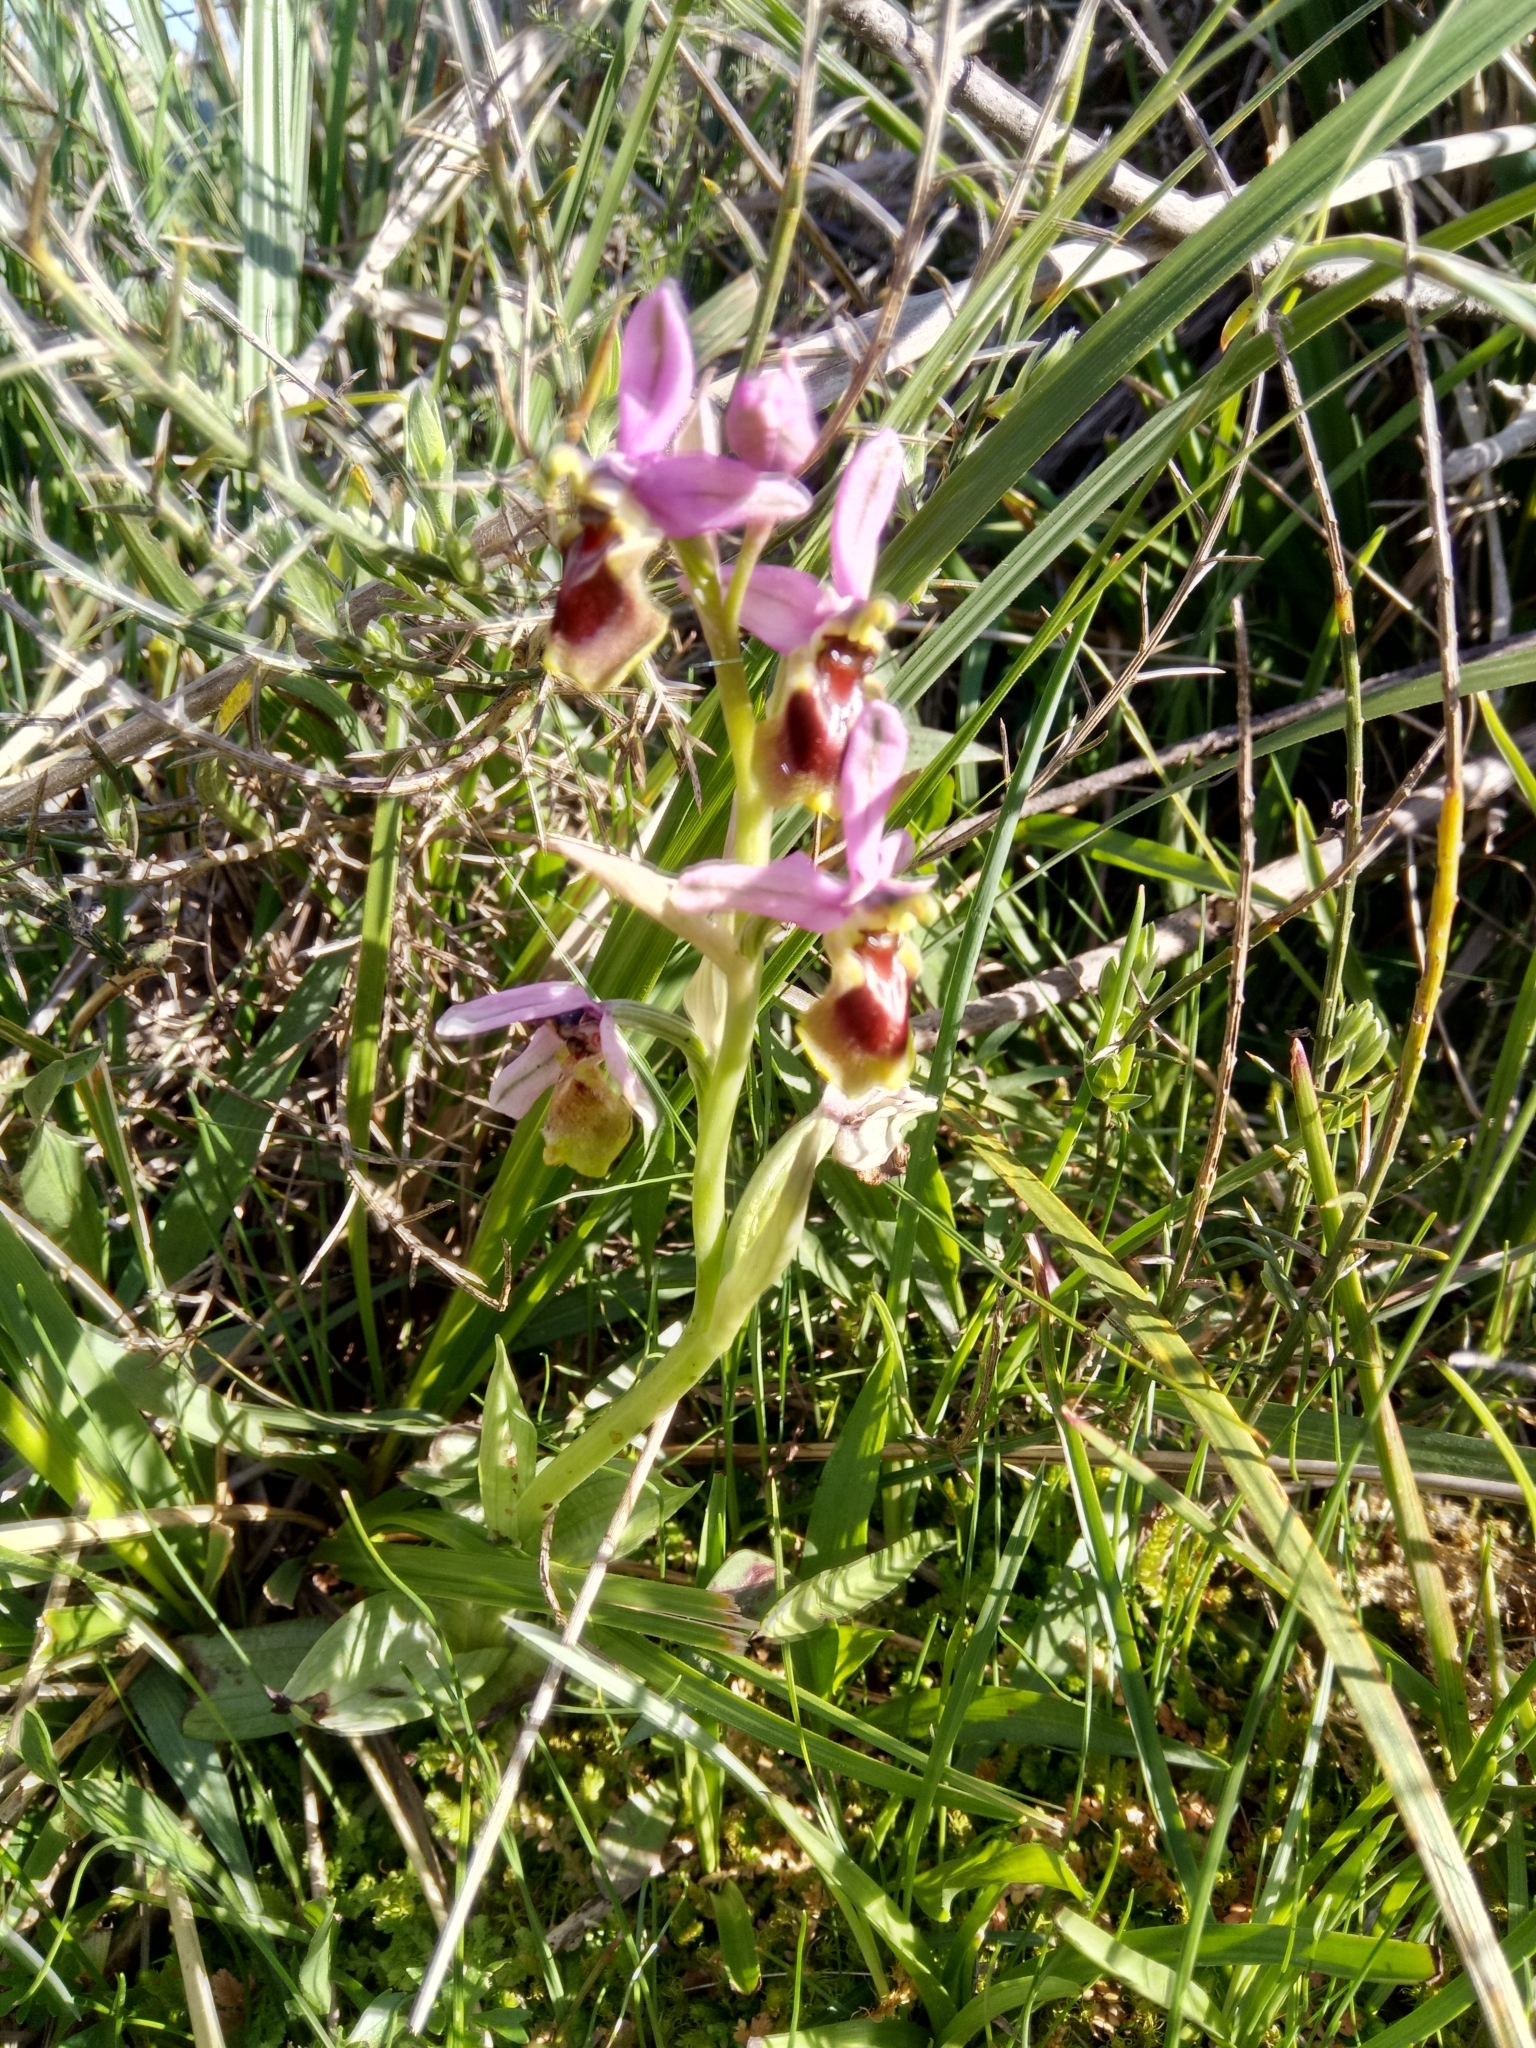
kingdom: Plantae
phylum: Tracheophyta
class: Liliopsida
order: Asparagales
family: Orchidaceae
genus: Ophrys
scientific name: Ophrys tenthredinifera
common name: Sawfly orchid
